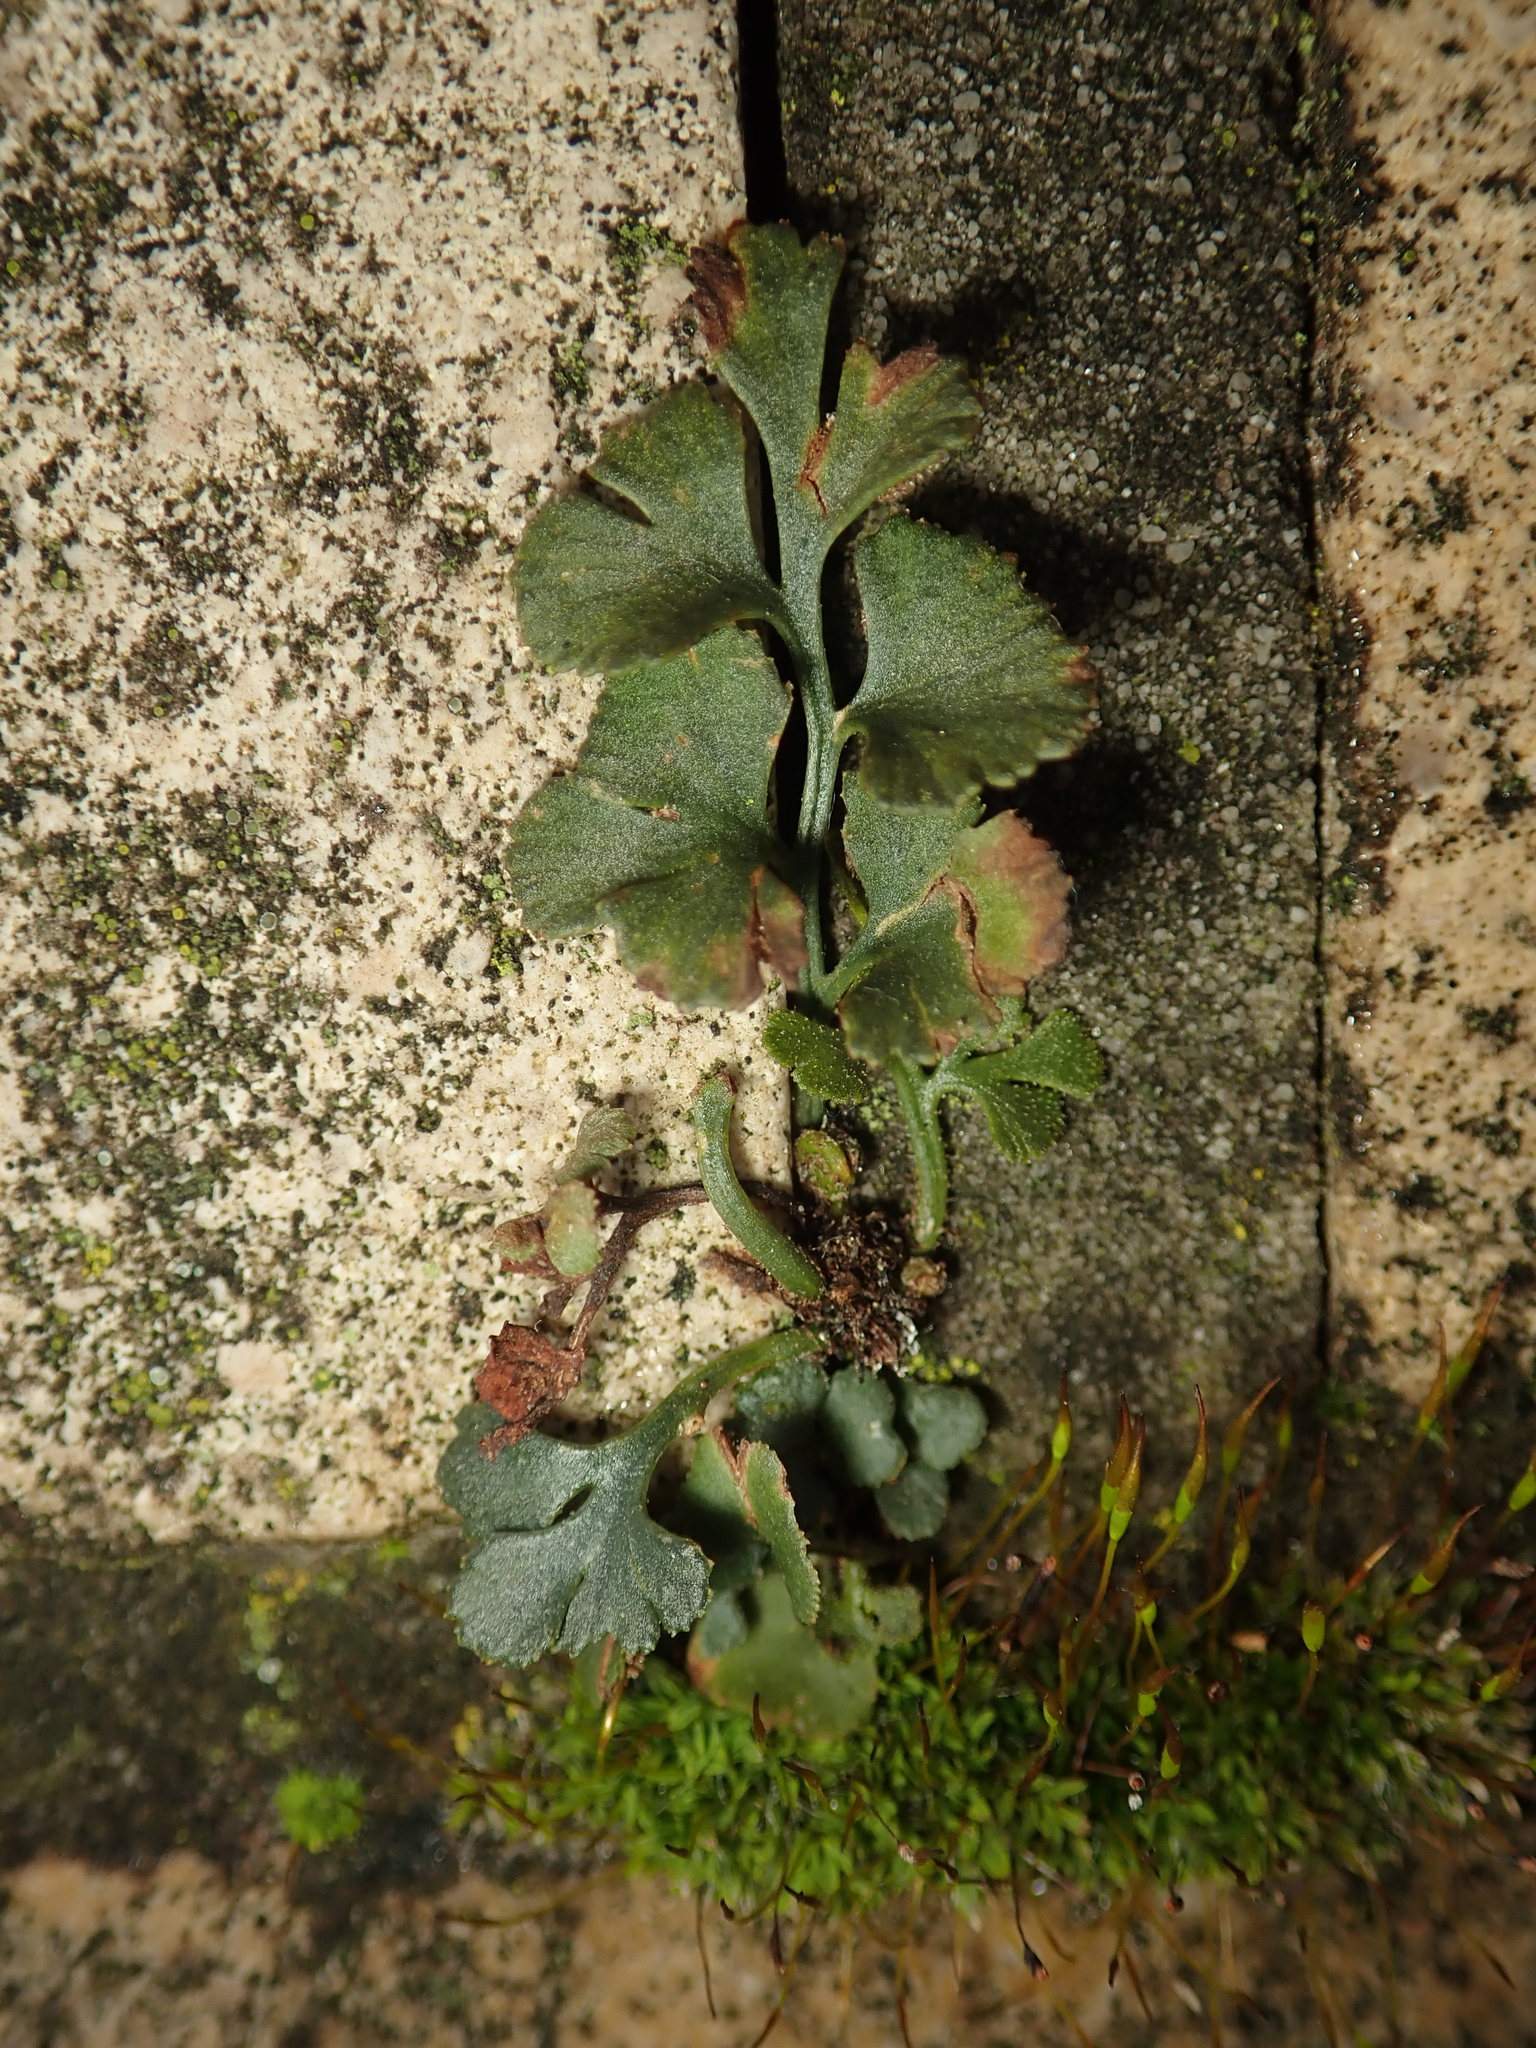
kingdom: Plantae
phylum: Tracheophyta
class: Polypodiopsida
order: Polypodiales
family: Aspleniaceae
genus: Asplenium
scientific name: Asplenium ruta-muraria
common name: Wall-rue
